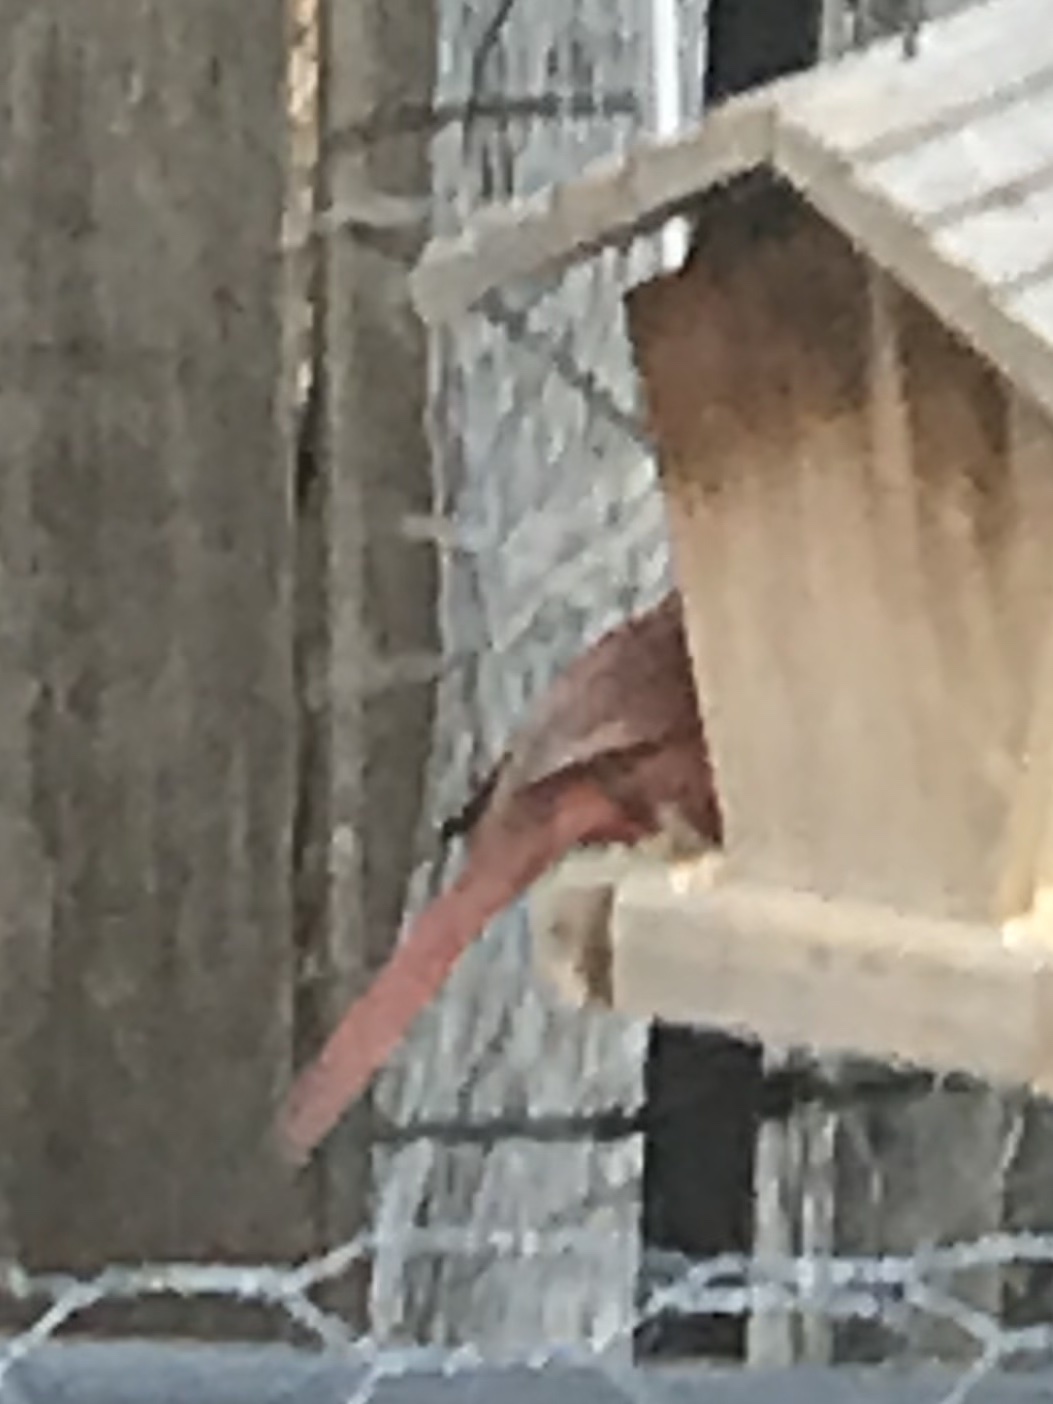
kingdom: Animalia
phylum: Chordata
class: Aves
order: Passeriformes
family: Cardinalidae
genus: Cardinalis
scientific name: Cardinalis cardinalis
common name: Northern cardinal
